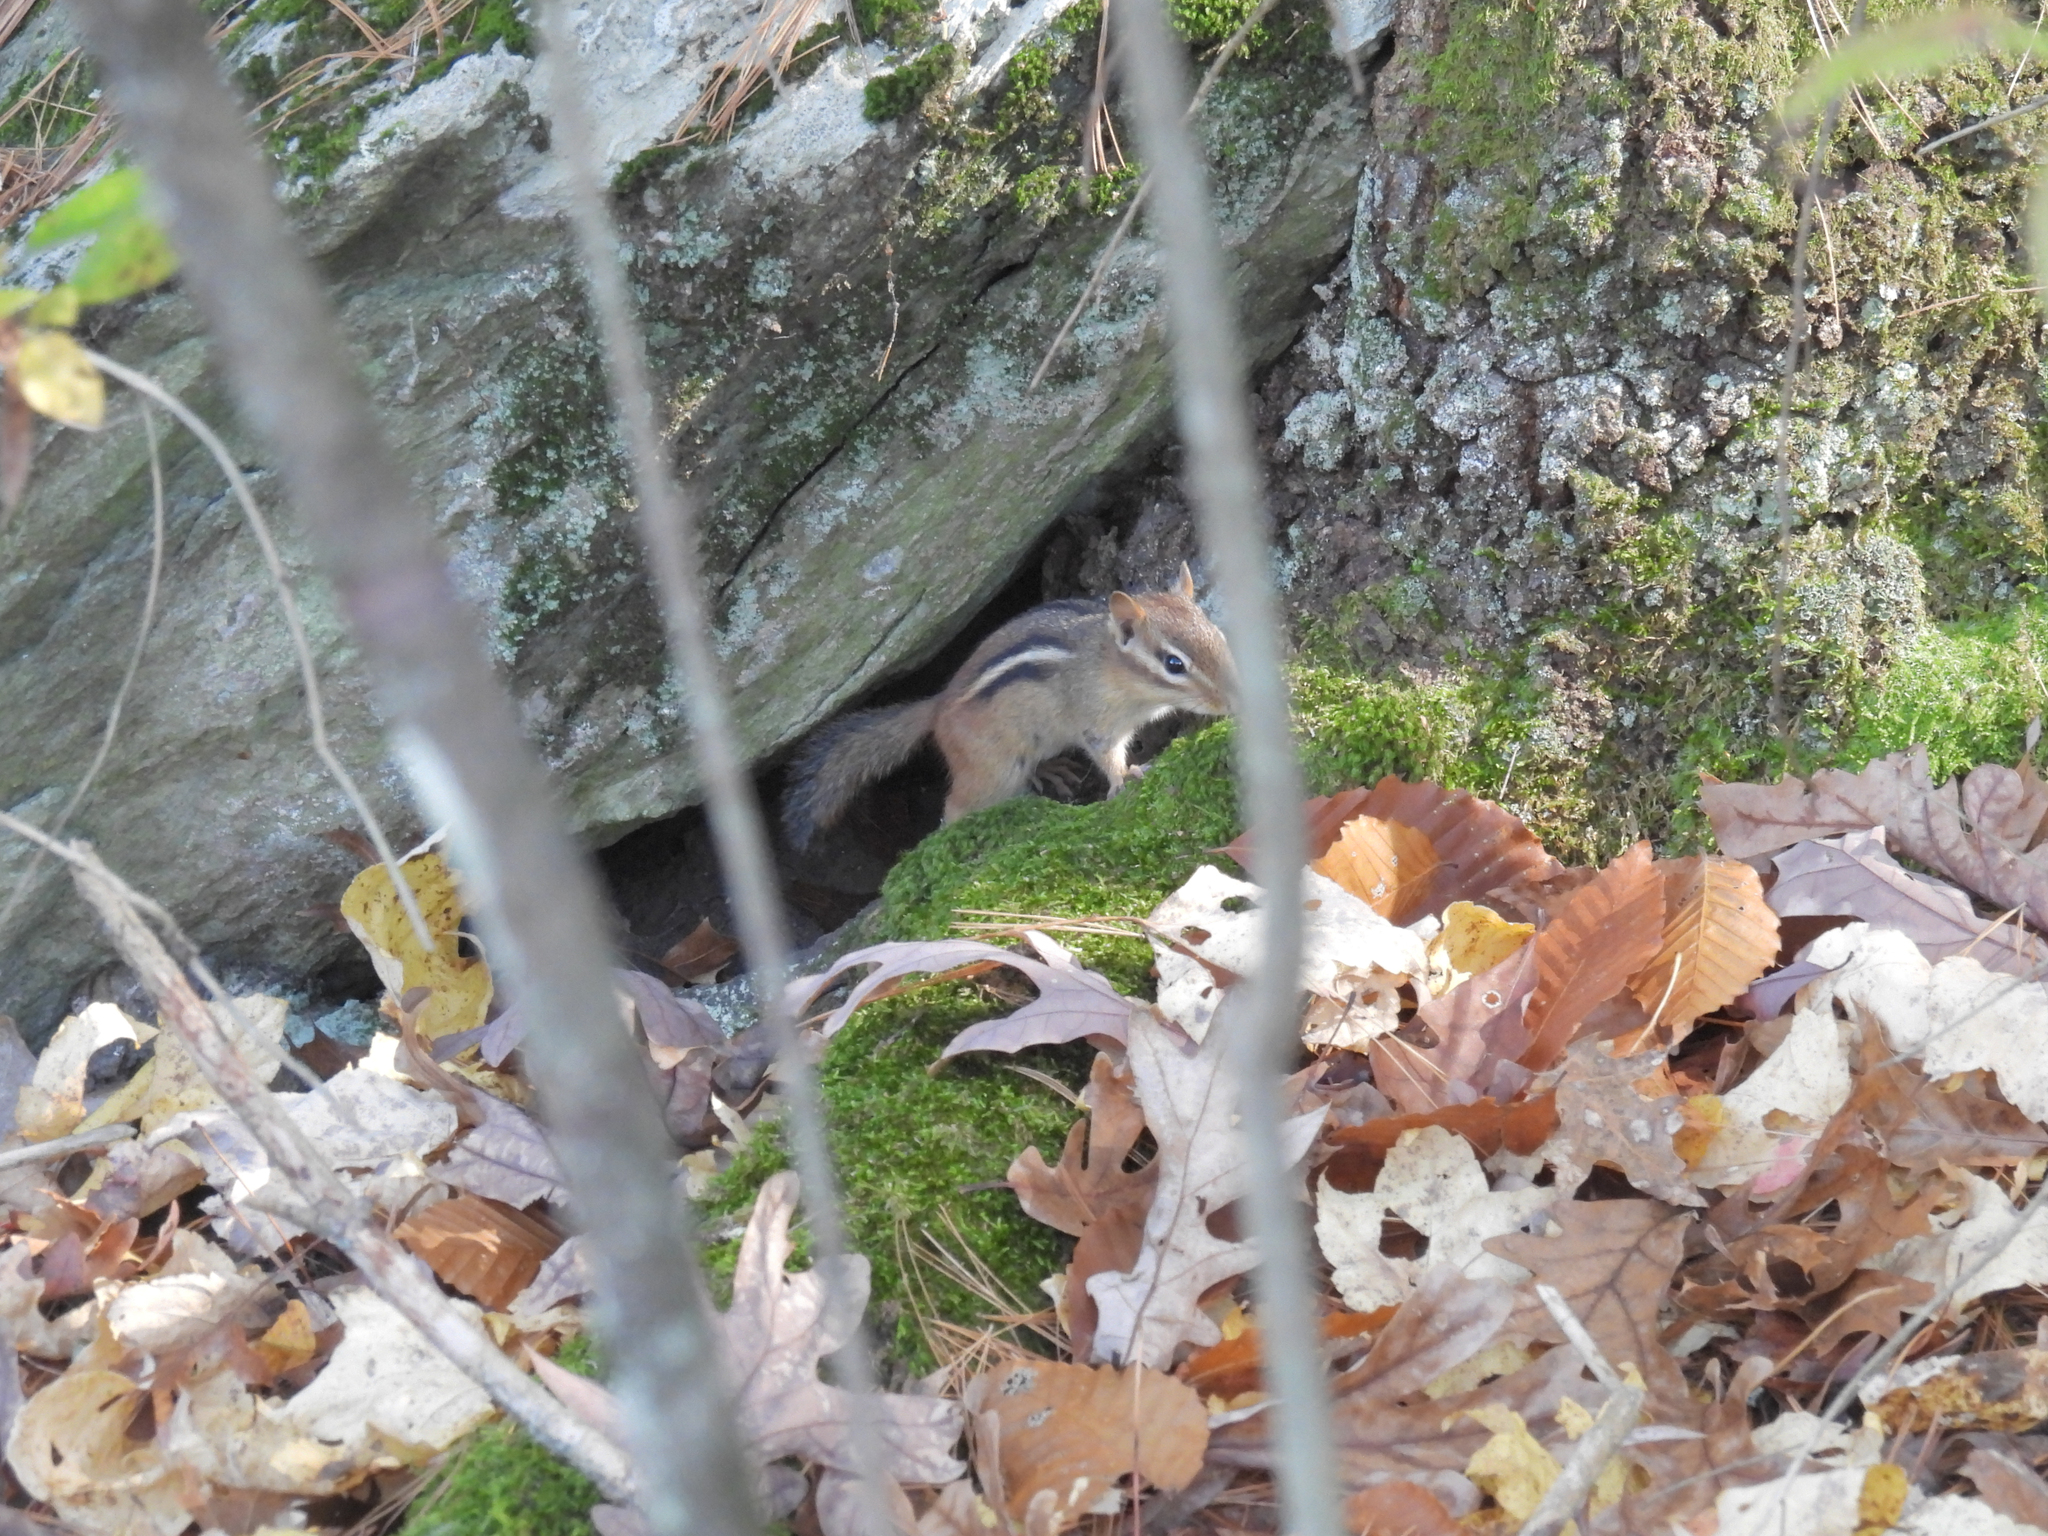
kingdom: Animalia
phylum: Chordata
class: Mammalia
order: Rodentia
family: Sciuridae
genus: Tamias
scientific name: Tamias striatus
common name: Eastern chipmunk
